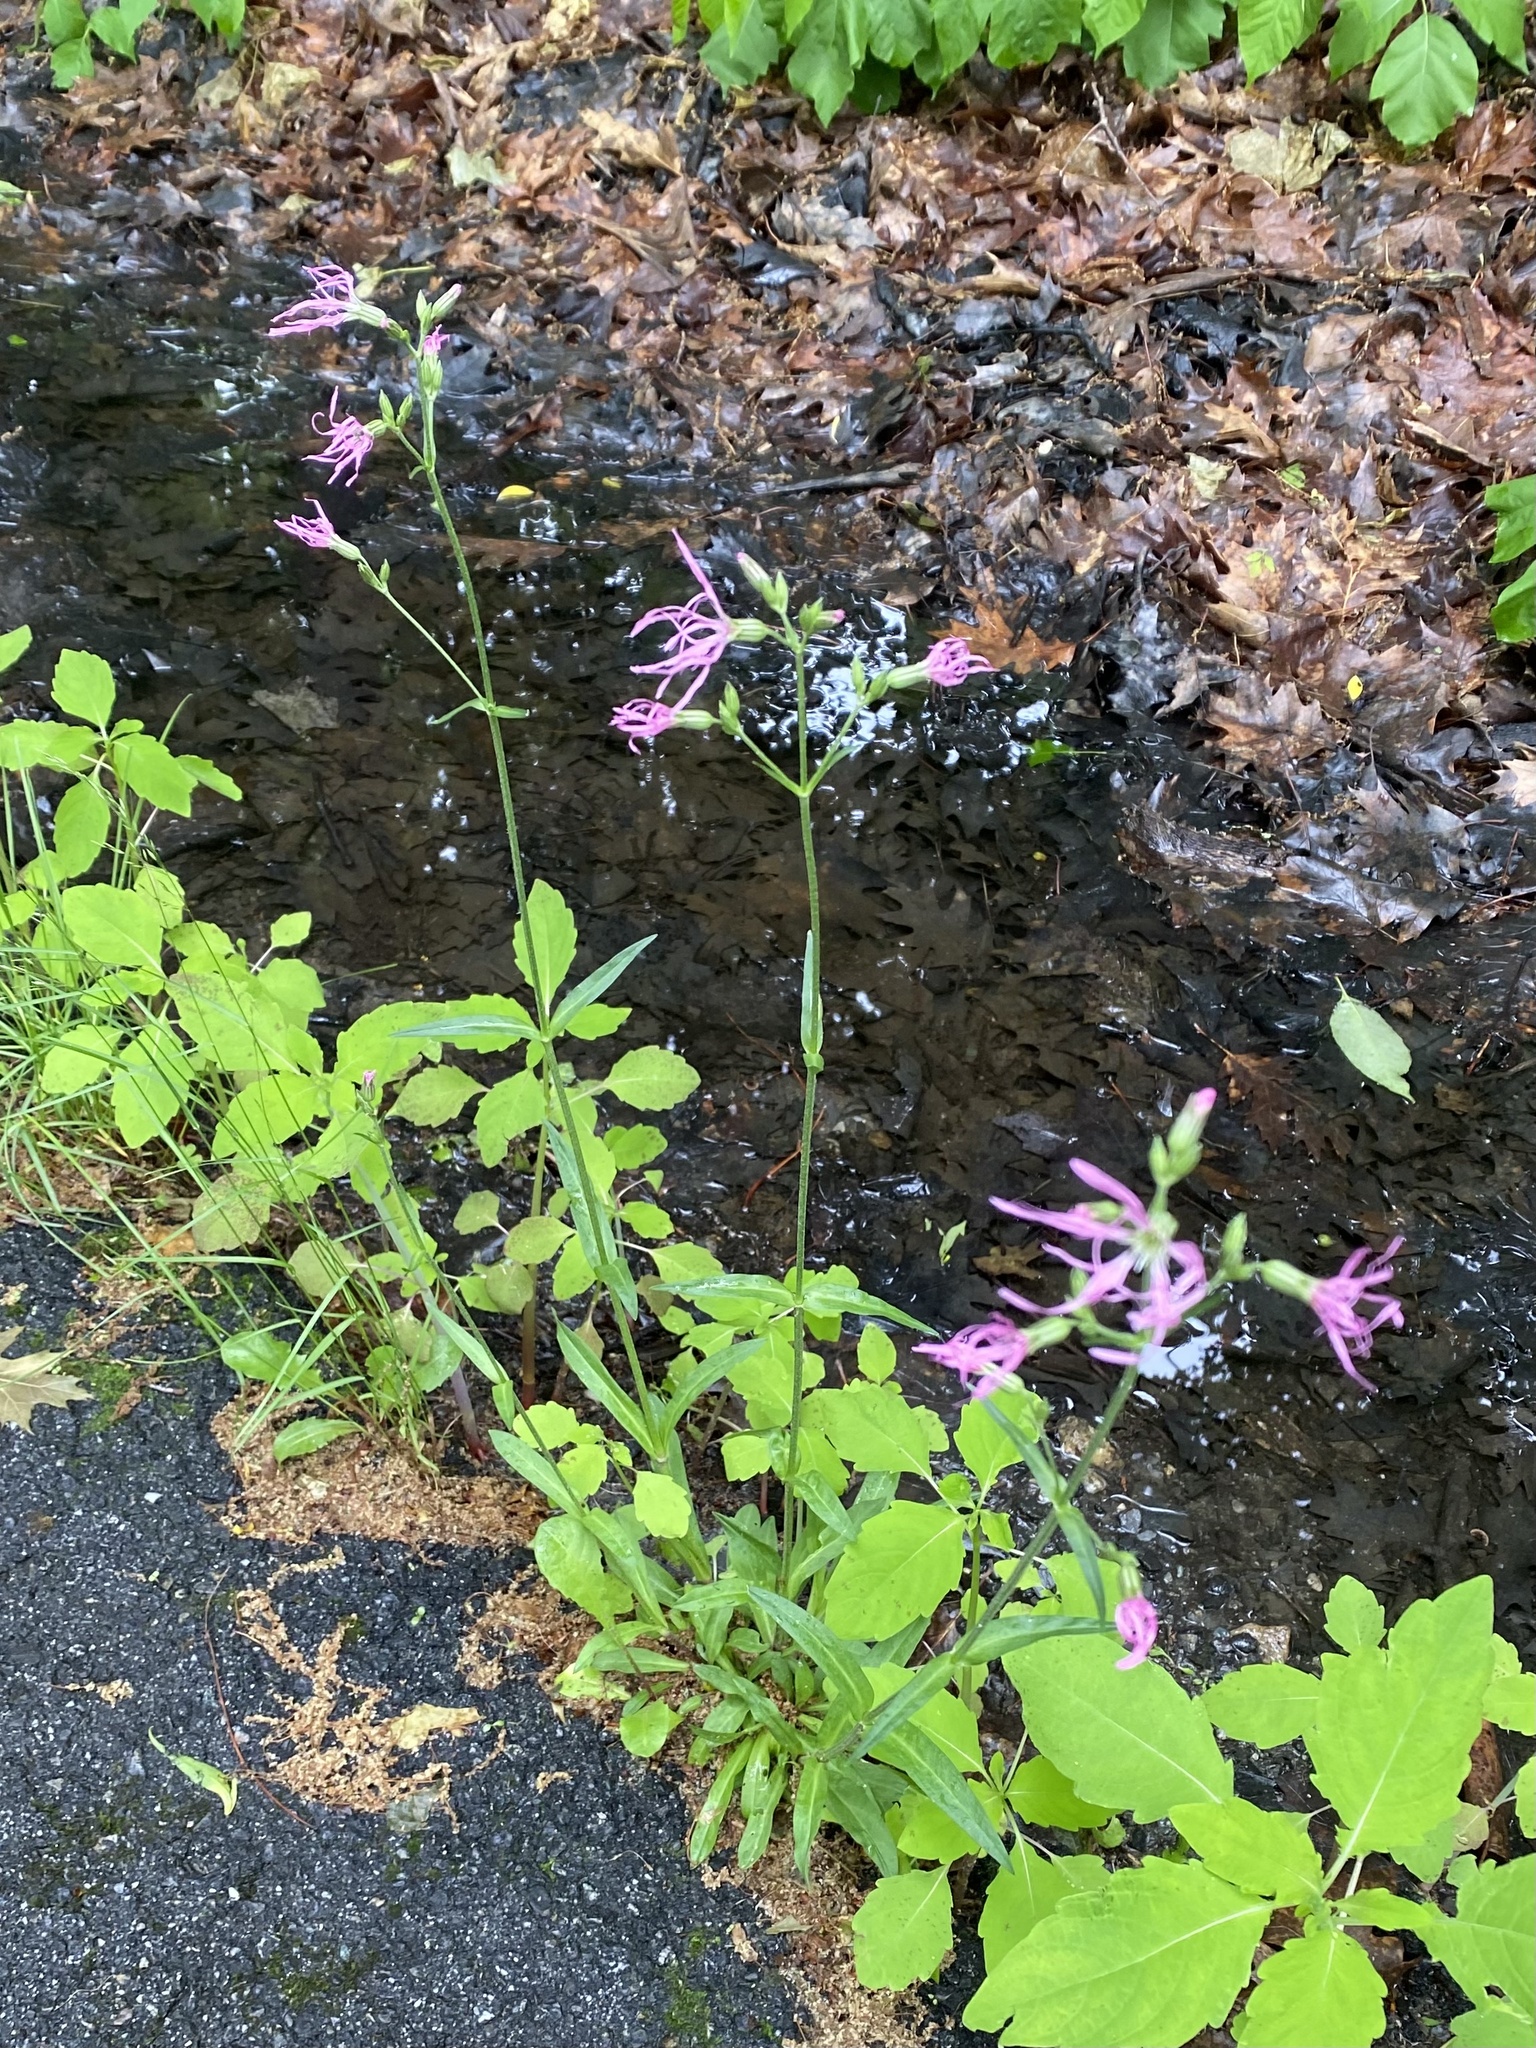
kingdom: Plantae
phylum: Tracheophyta
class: Magnoliopsida
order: Caryophyllales
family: Caryophyllaceae
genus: Silene
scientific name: Silene flos-cuculi
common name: Ragged-robin
